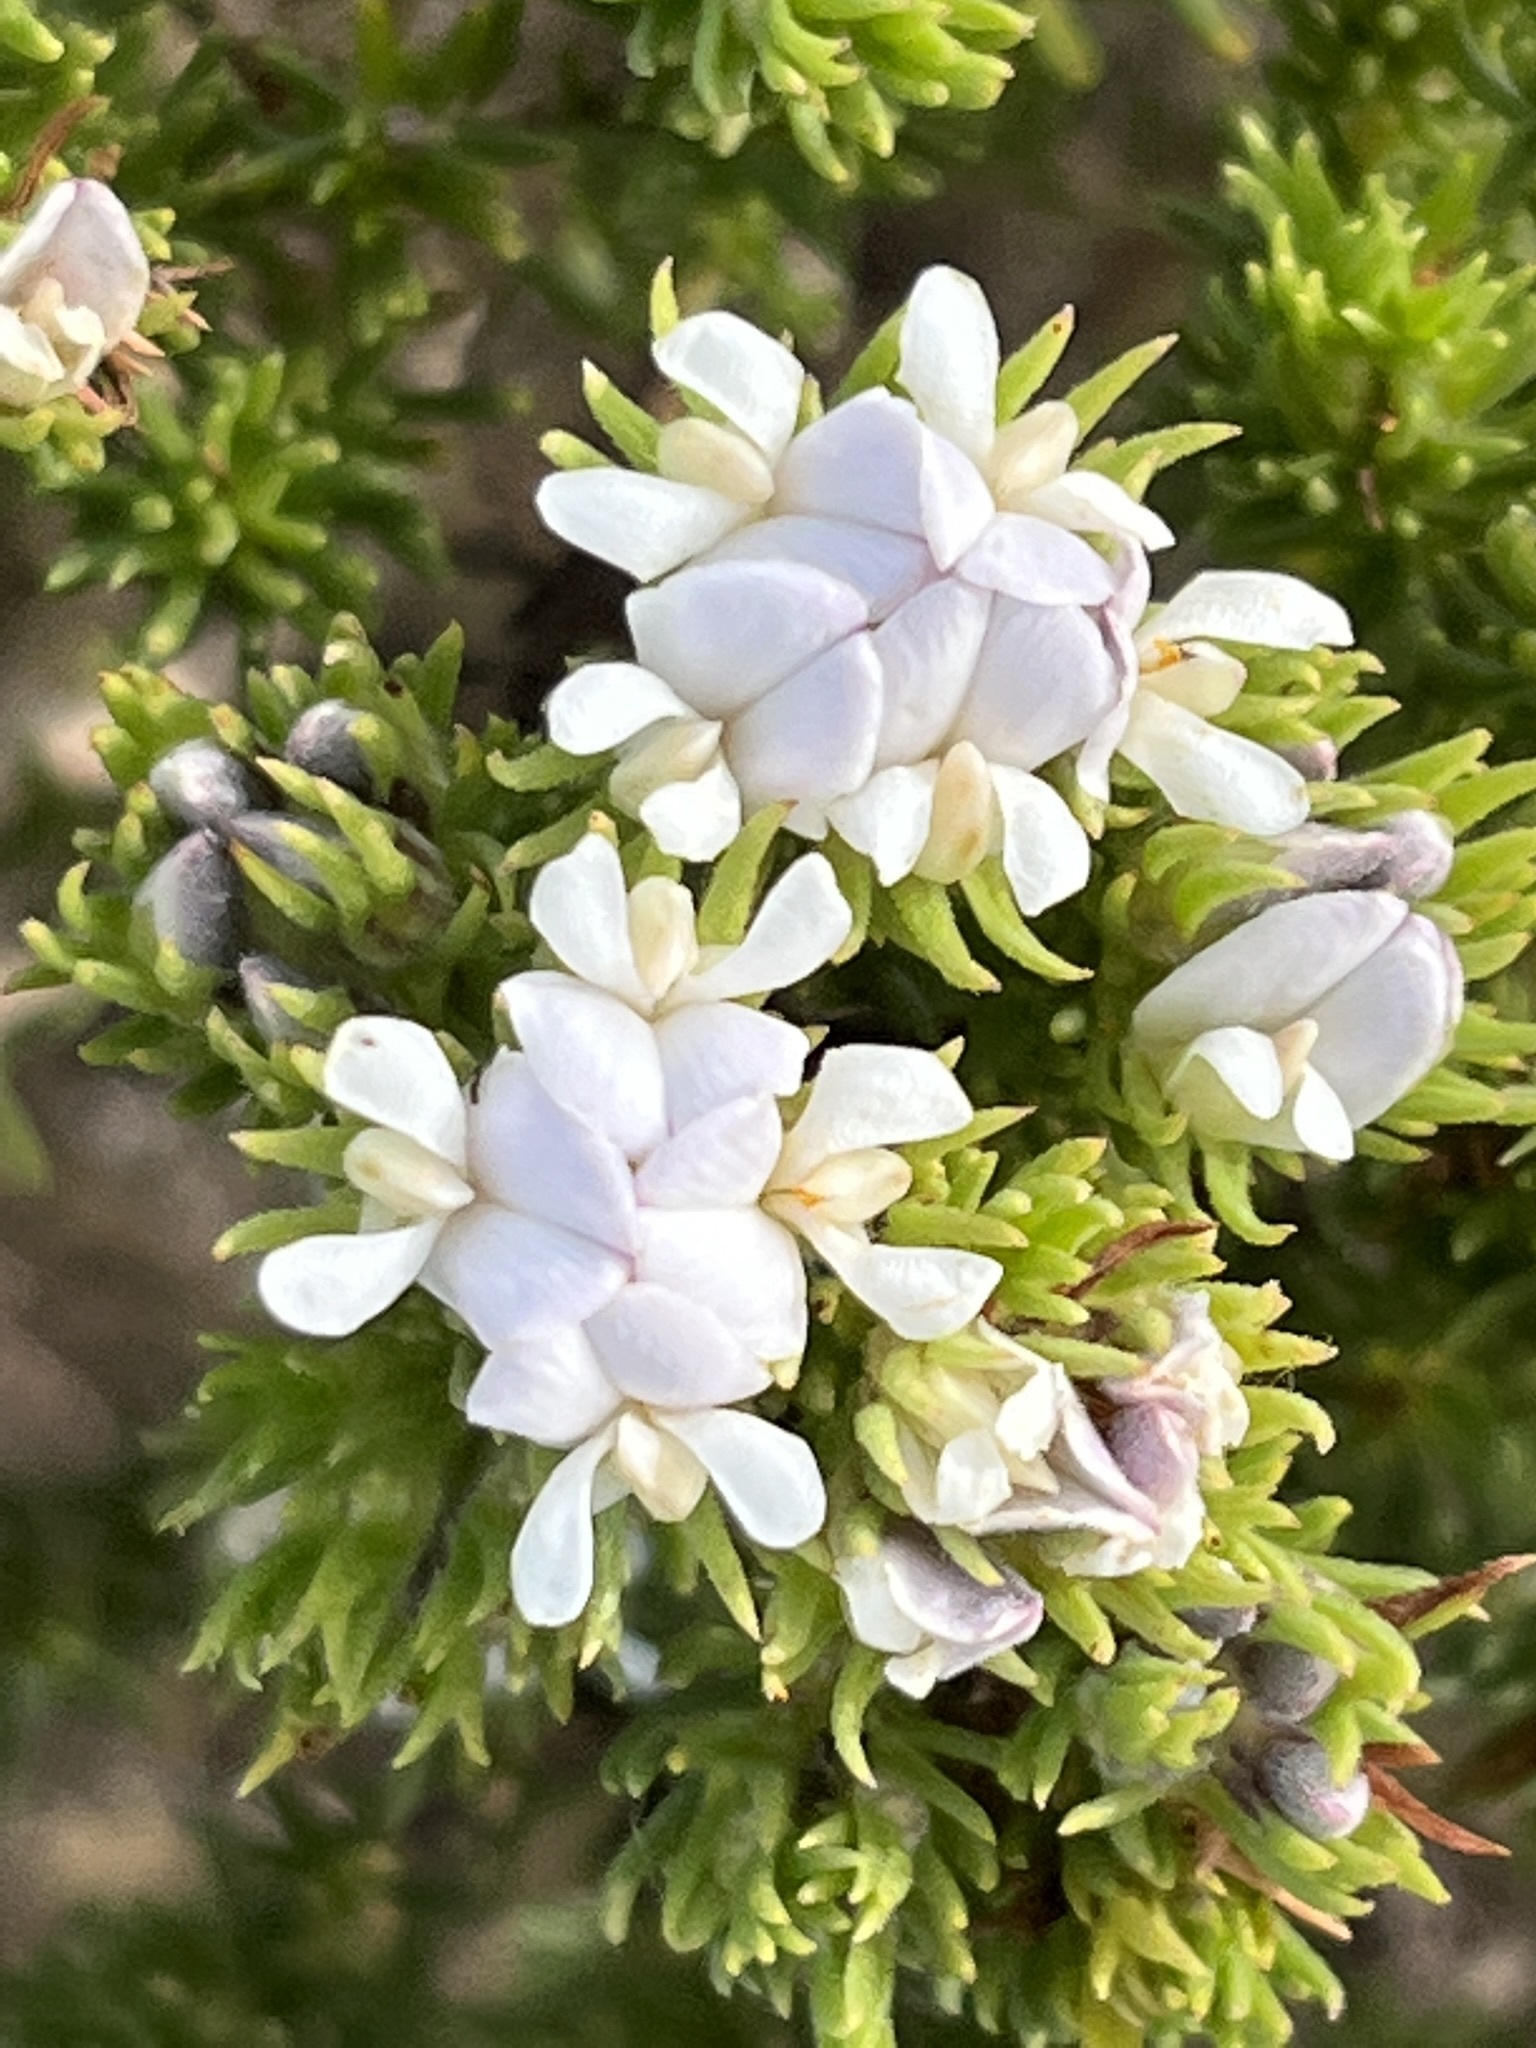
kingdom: Plantae
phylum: Tracheophyta
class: Magnoliopsida
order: Fabales
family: Fabaceae
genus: Aspalathus
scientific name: Aspalathus forbesii
